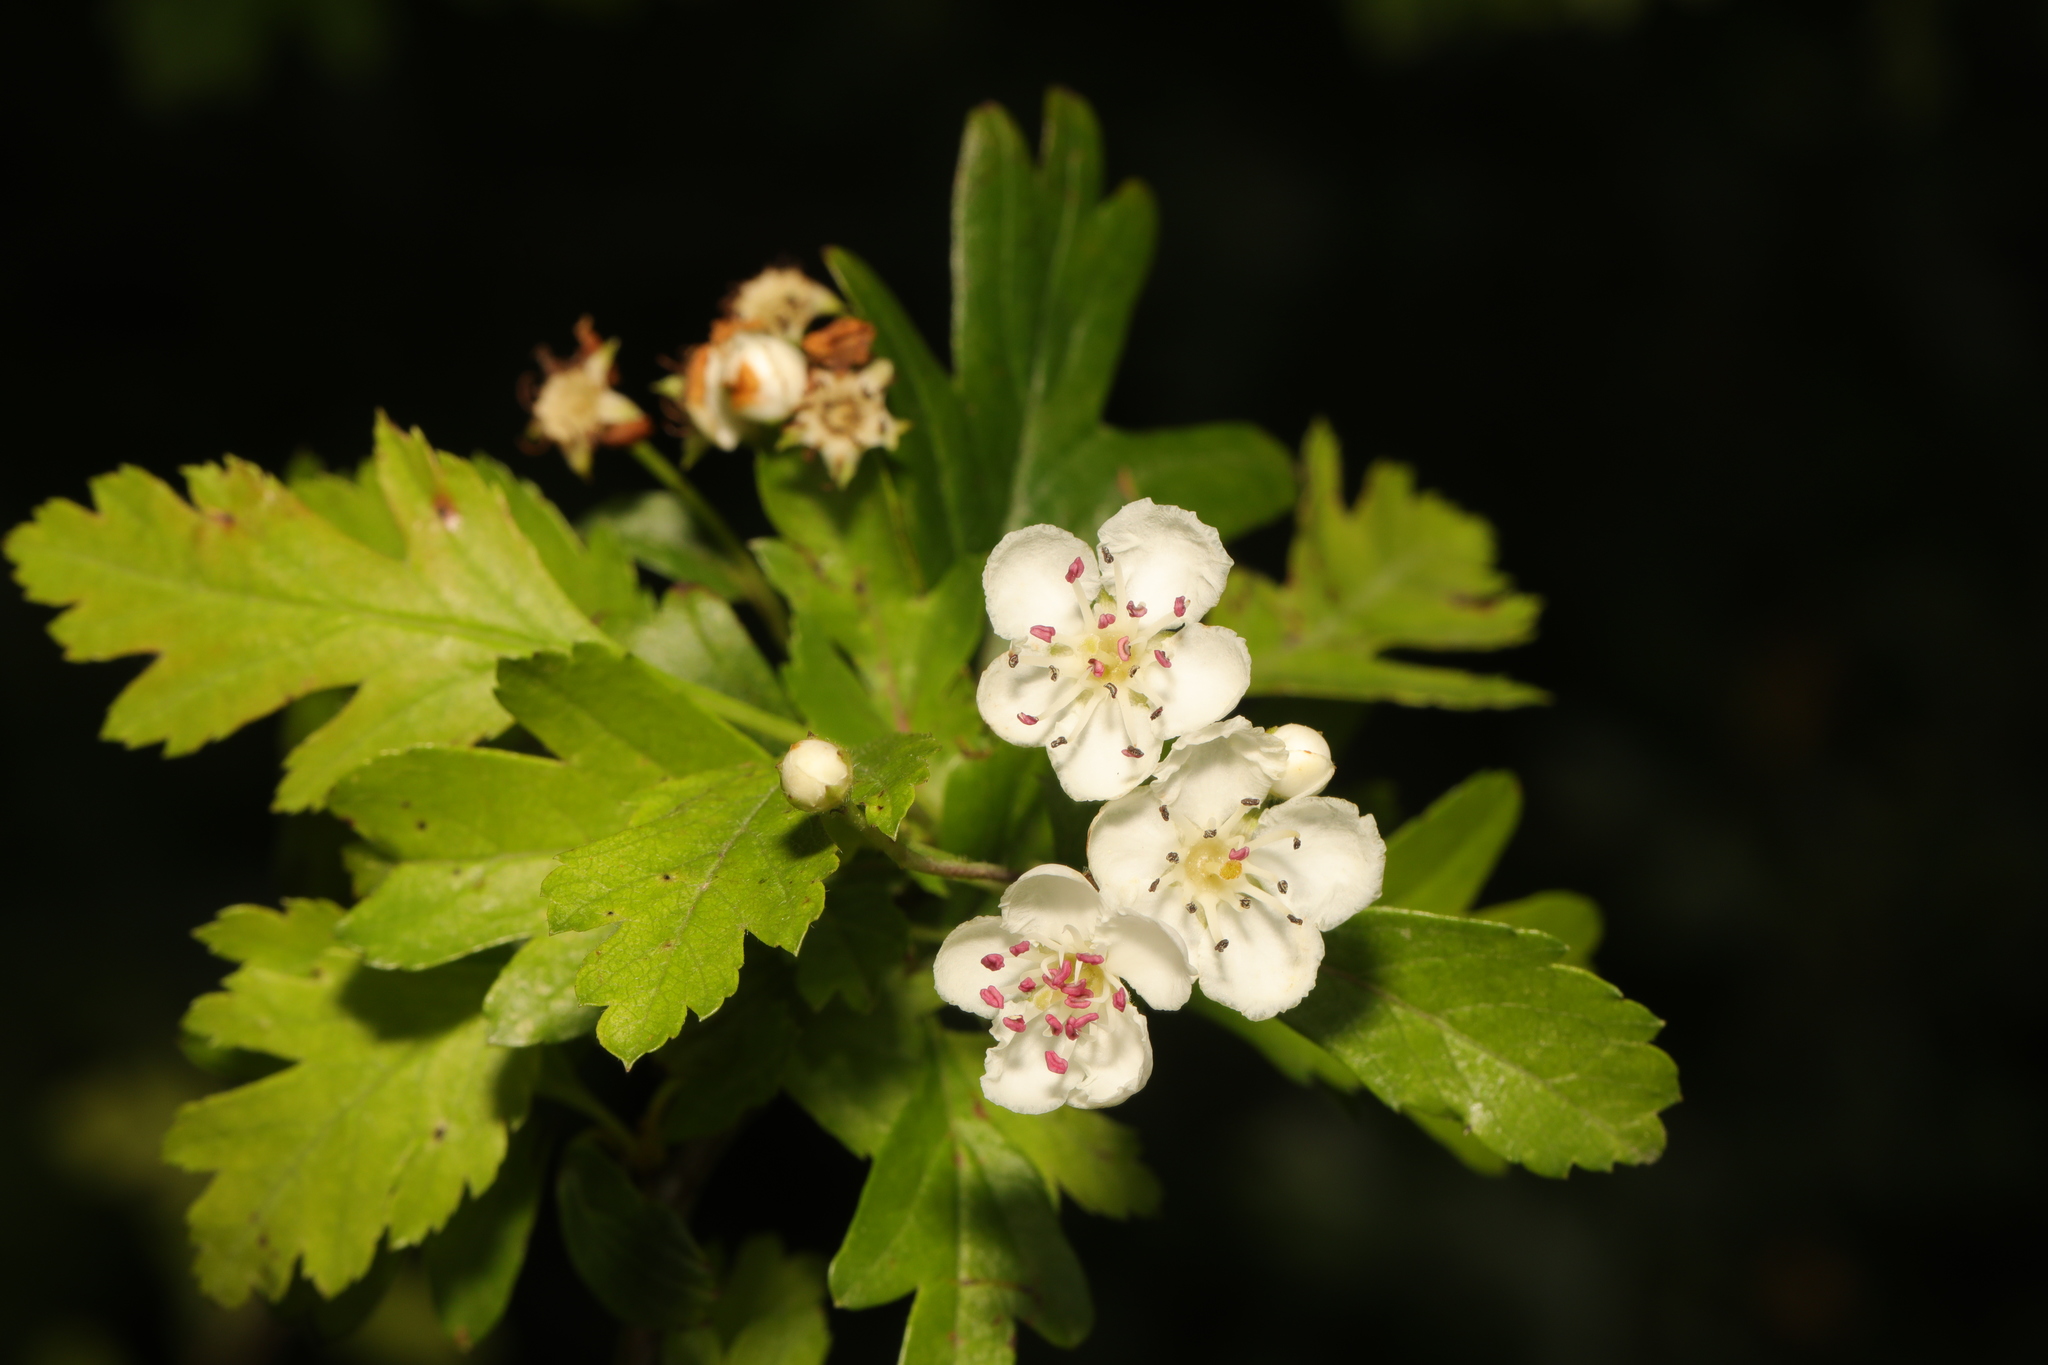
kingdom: Plantae
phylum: Tracheophyta
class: Magnoliopsida
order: Rosales
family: Rosaceae
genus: Crataegus
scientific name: Crataegus monogyna
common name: Hawthorn
